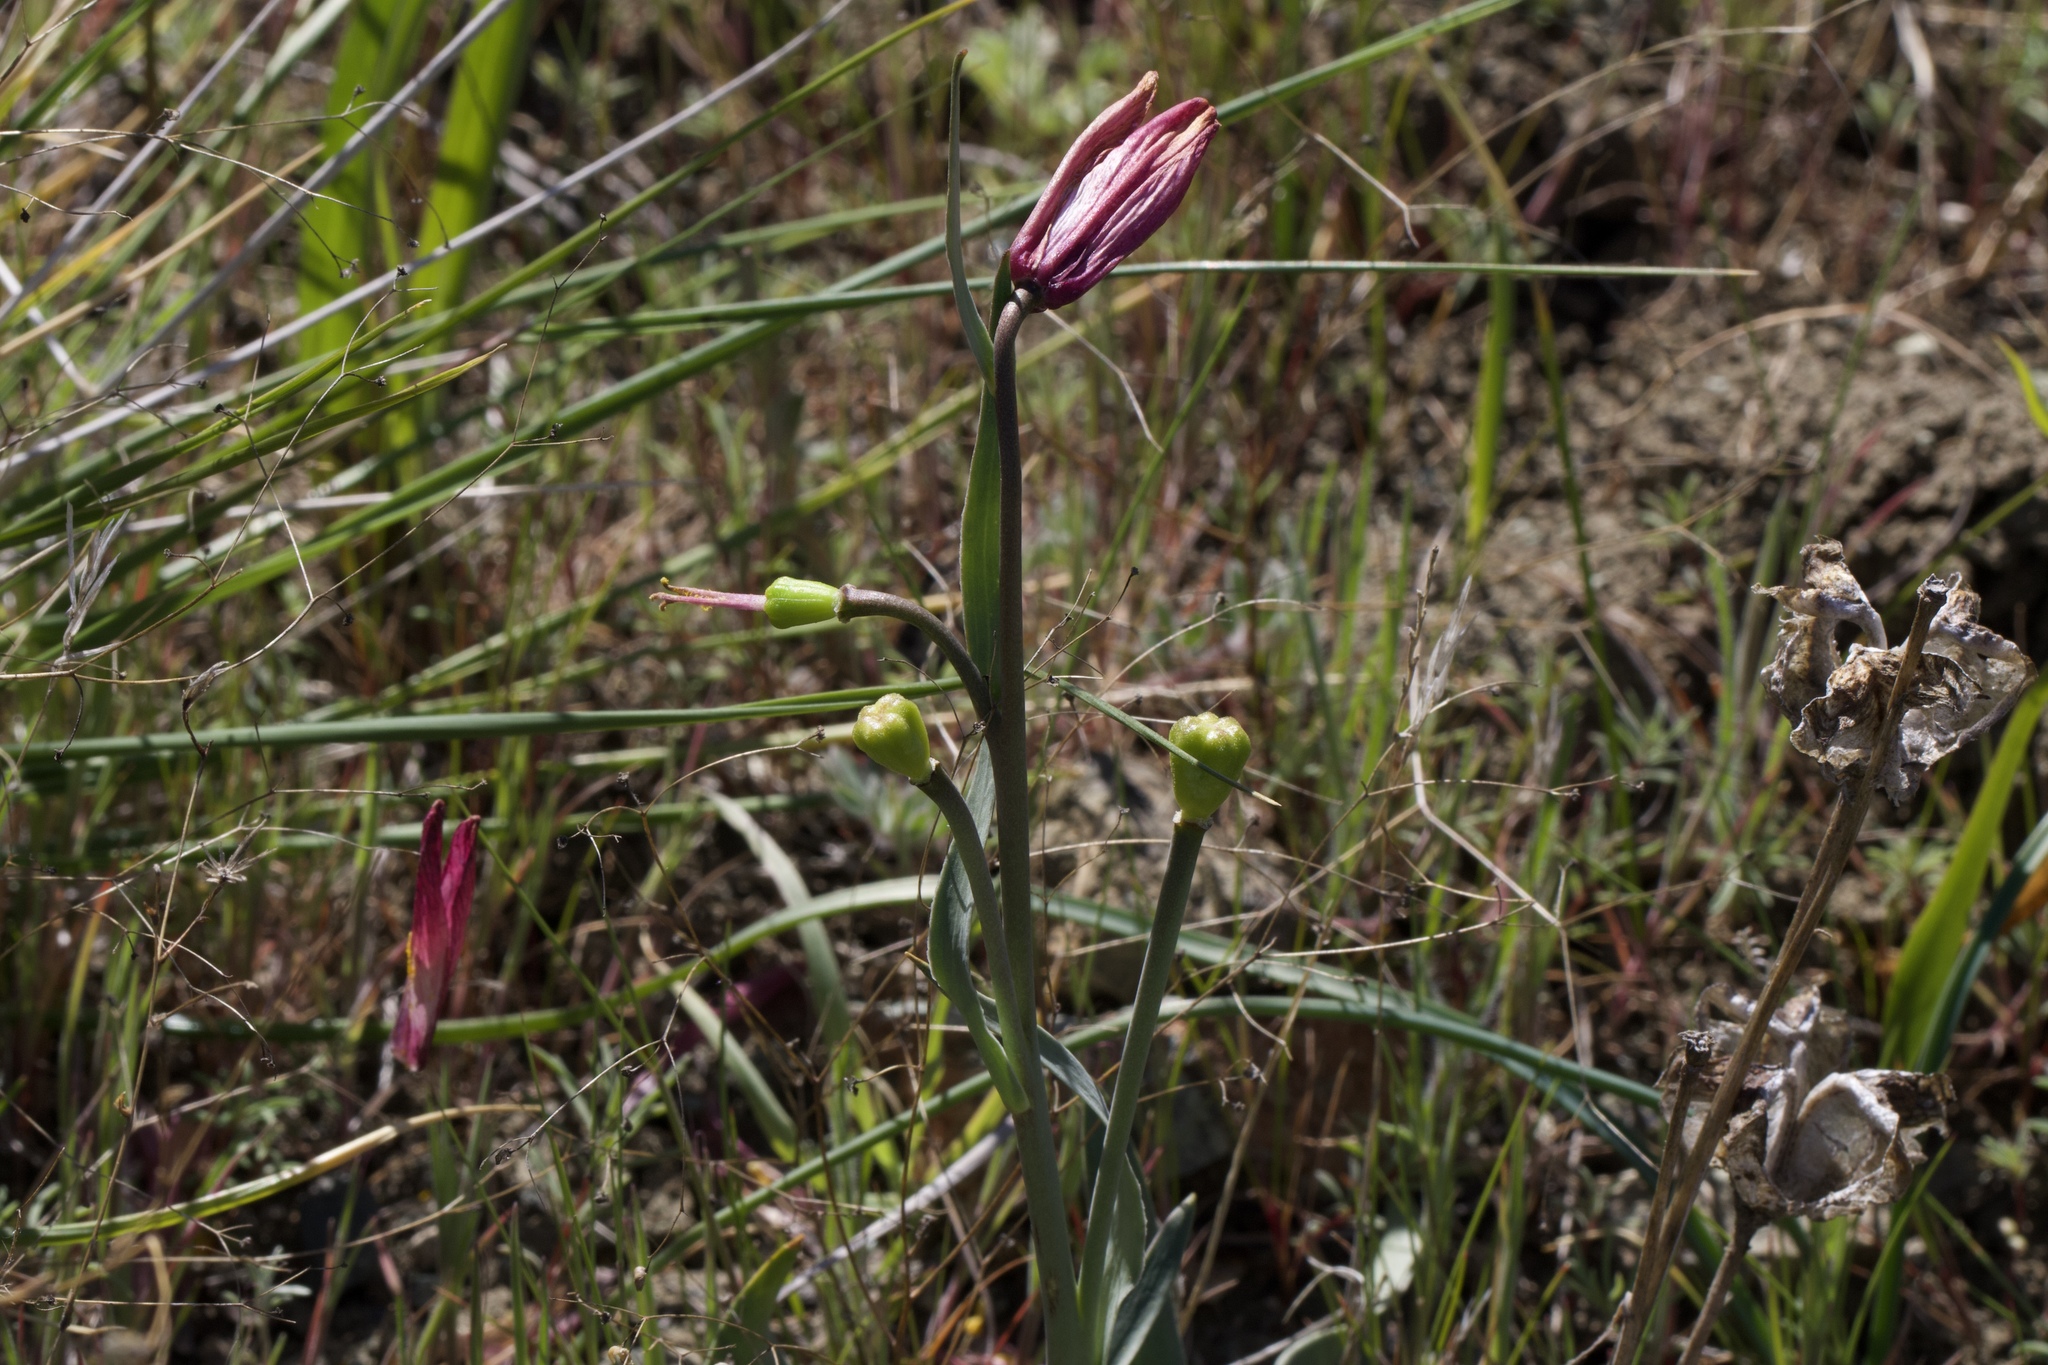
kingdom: Plantae
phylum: Tracheophyta
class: Liliopsida
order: Liliales
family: Liliaceae
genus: Fritillaria
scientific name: Fritillaria pluriflora
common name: Adobe-lily
